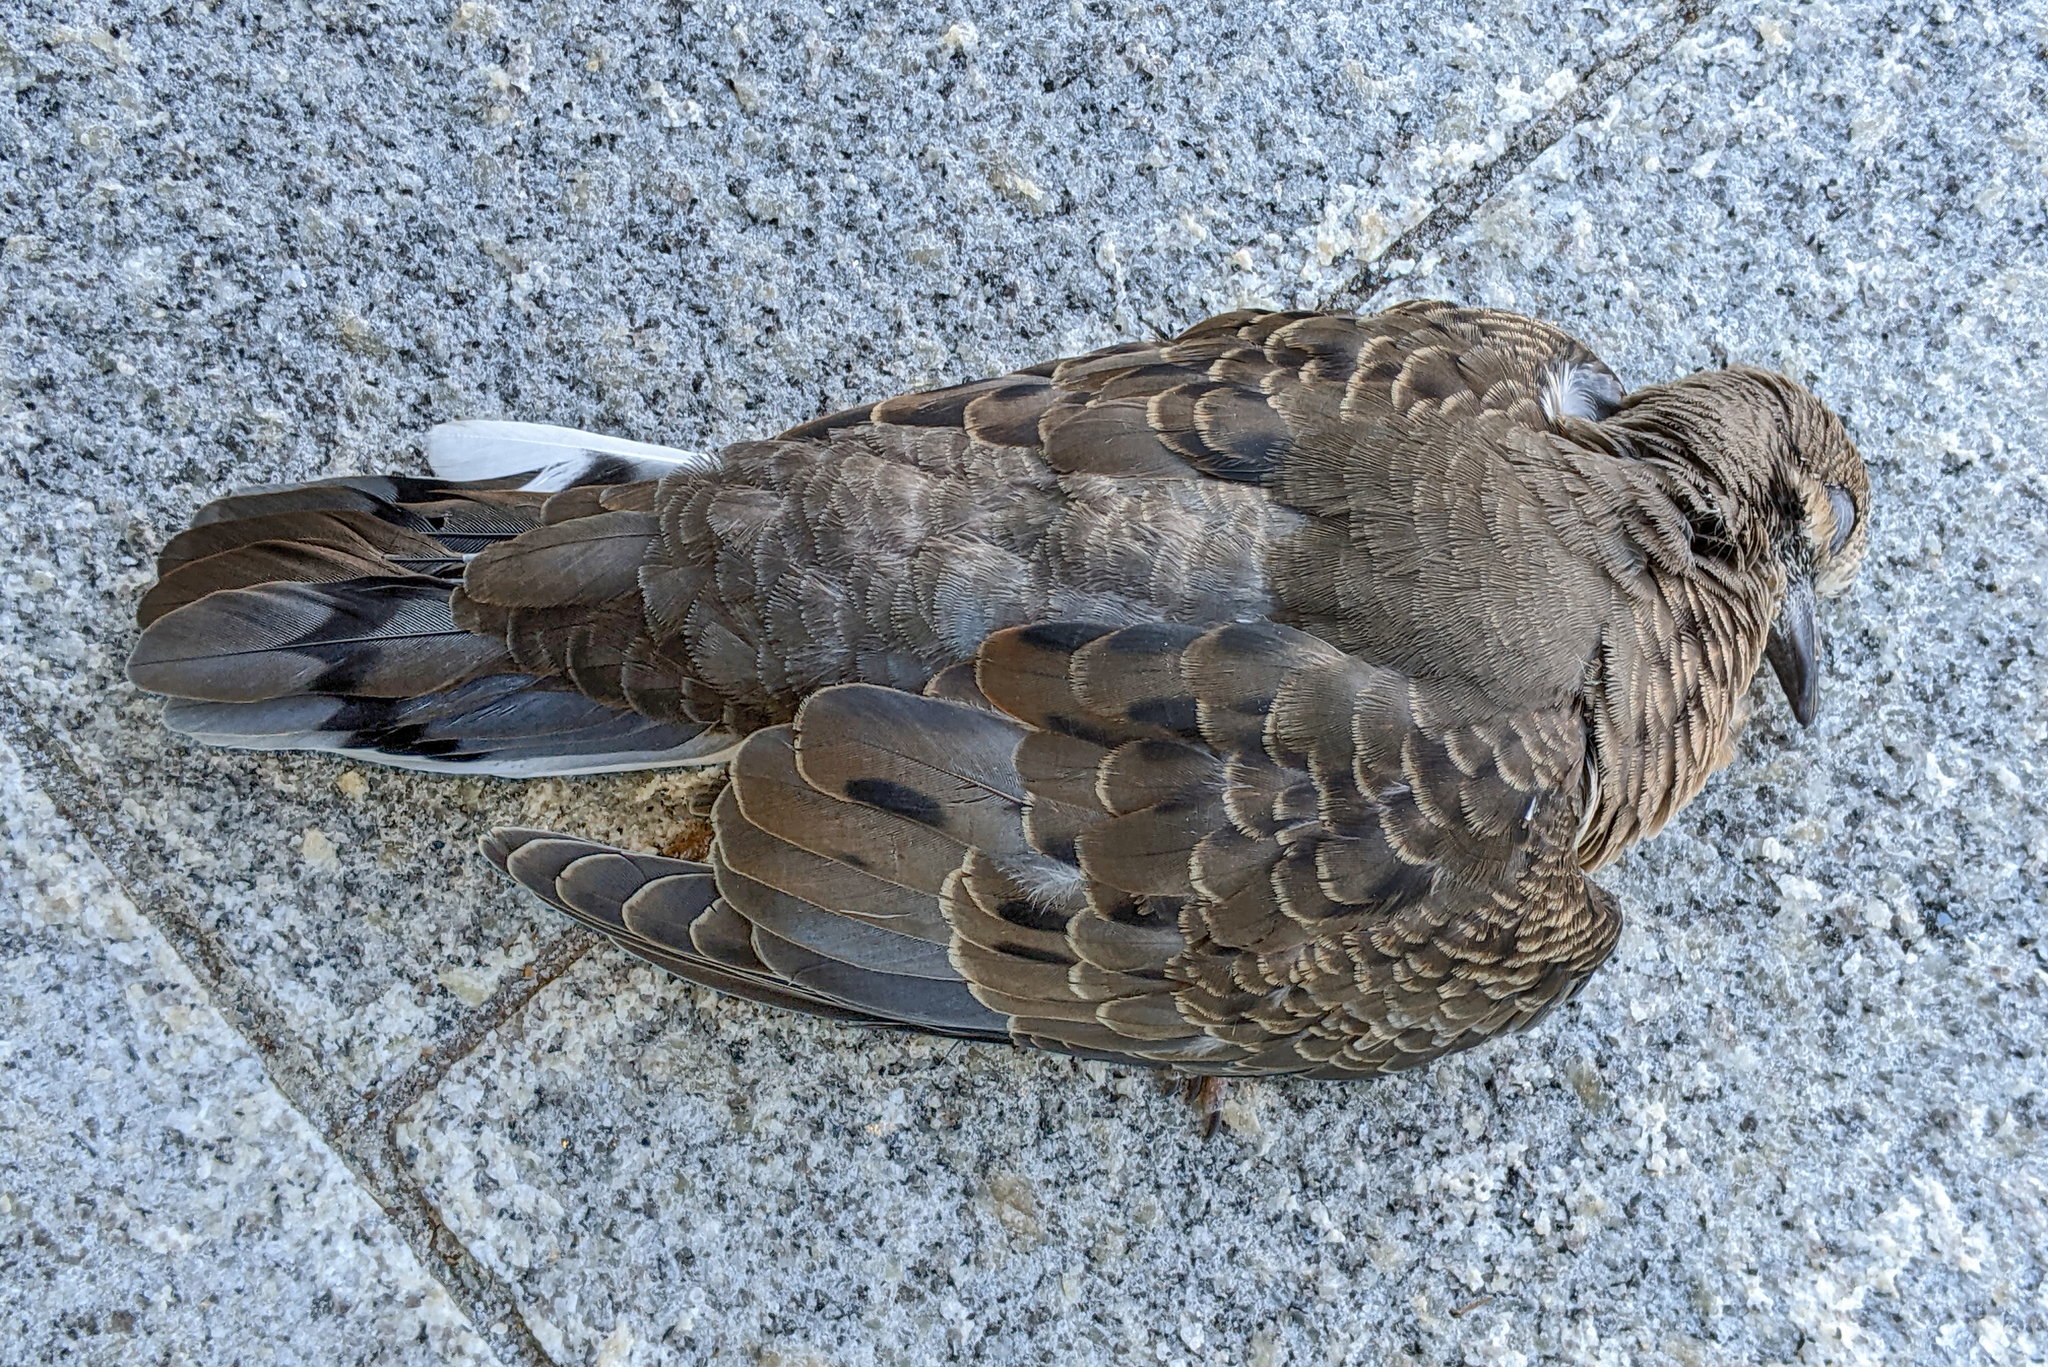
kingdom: Animalia
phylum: Chordata
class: Aves
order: Columbiformes
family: Columbidae
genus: Zenaida
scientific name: Zenaida macroura
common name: Mourning dove
